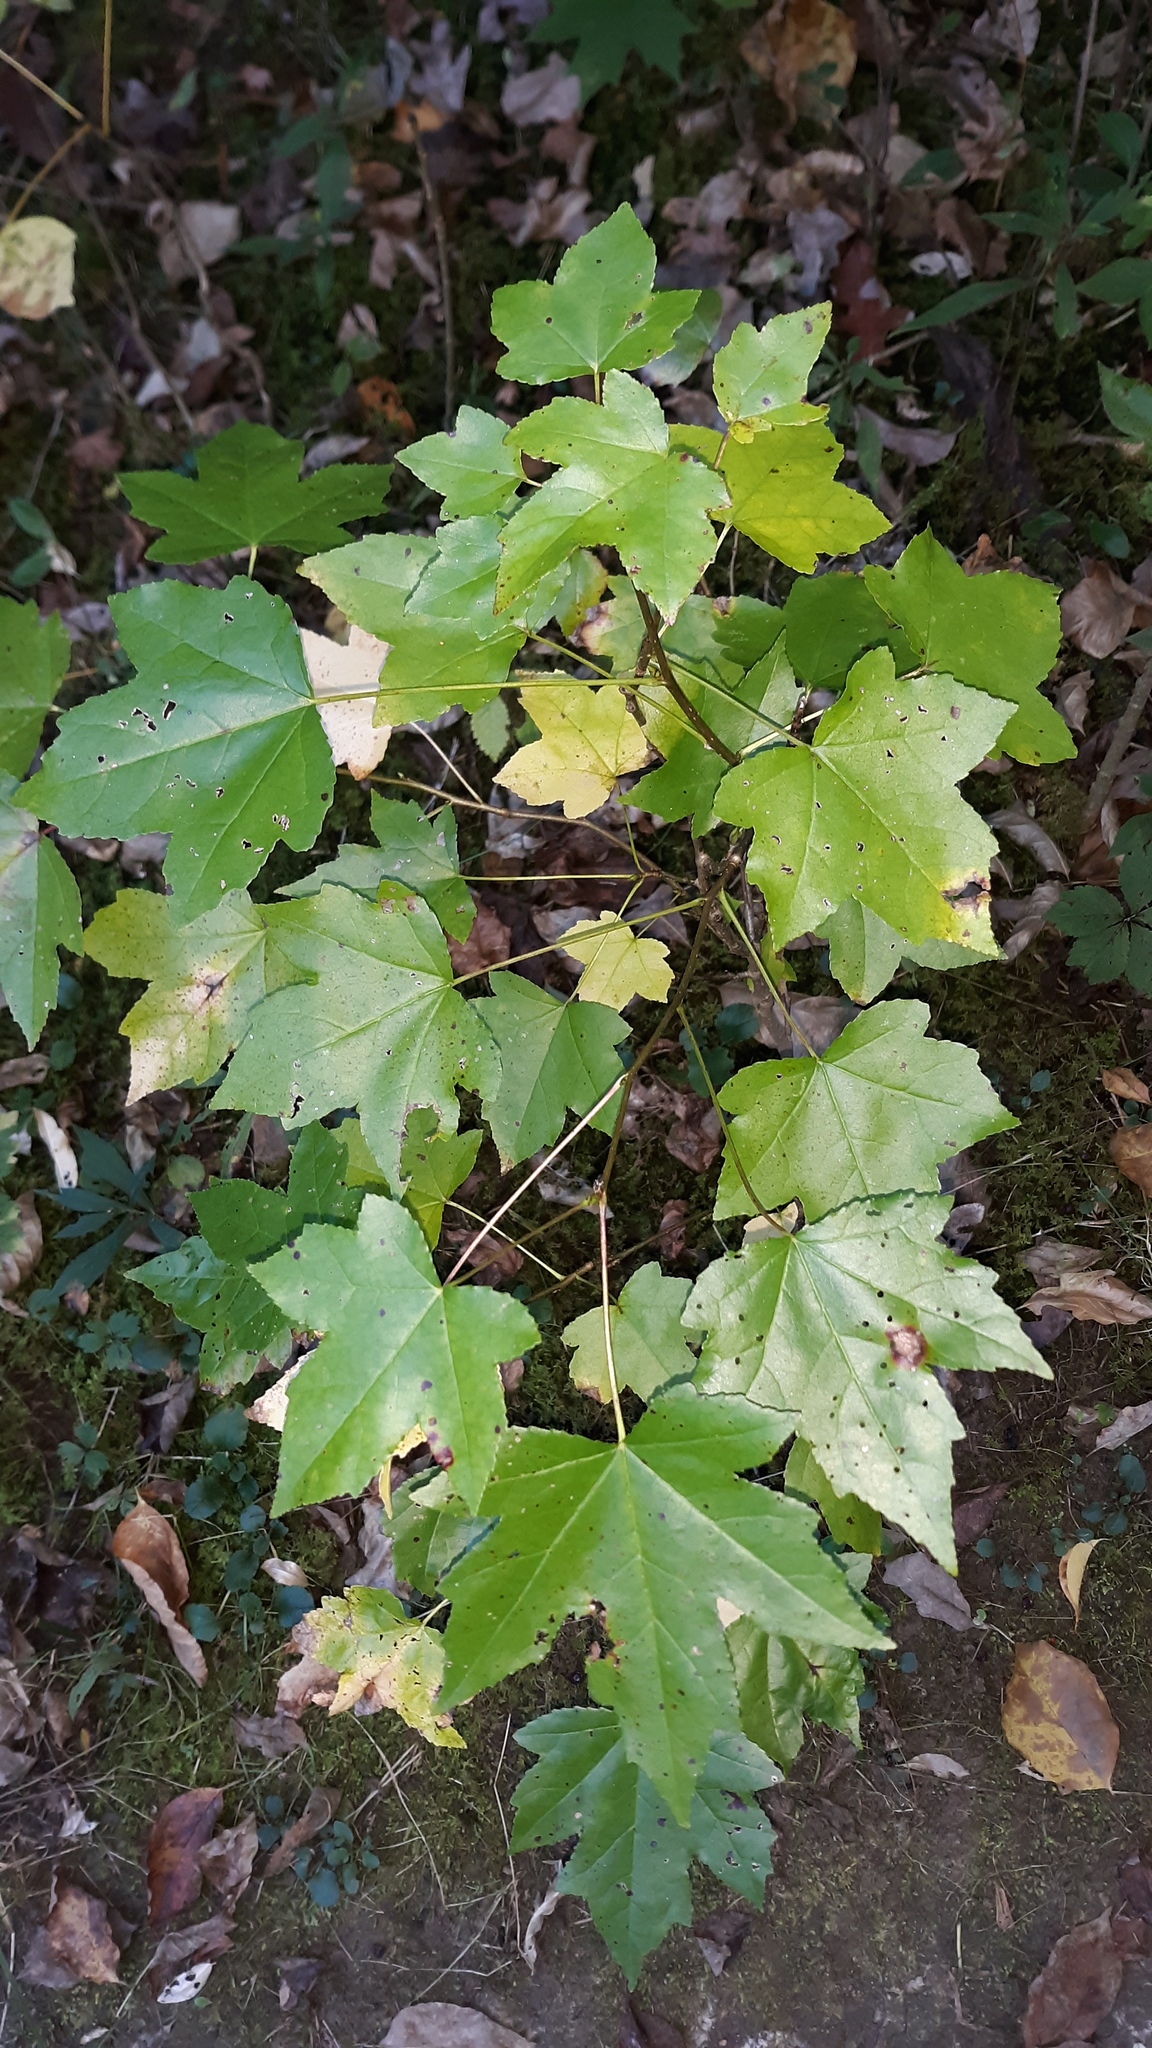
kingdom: Plantae
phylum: Tracheophyta
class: Magnoliopsida
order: Saxifragales
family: Altingiaceae
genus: Liquidambar
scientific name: Liquidambar styraciflua
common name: Sweet gum
